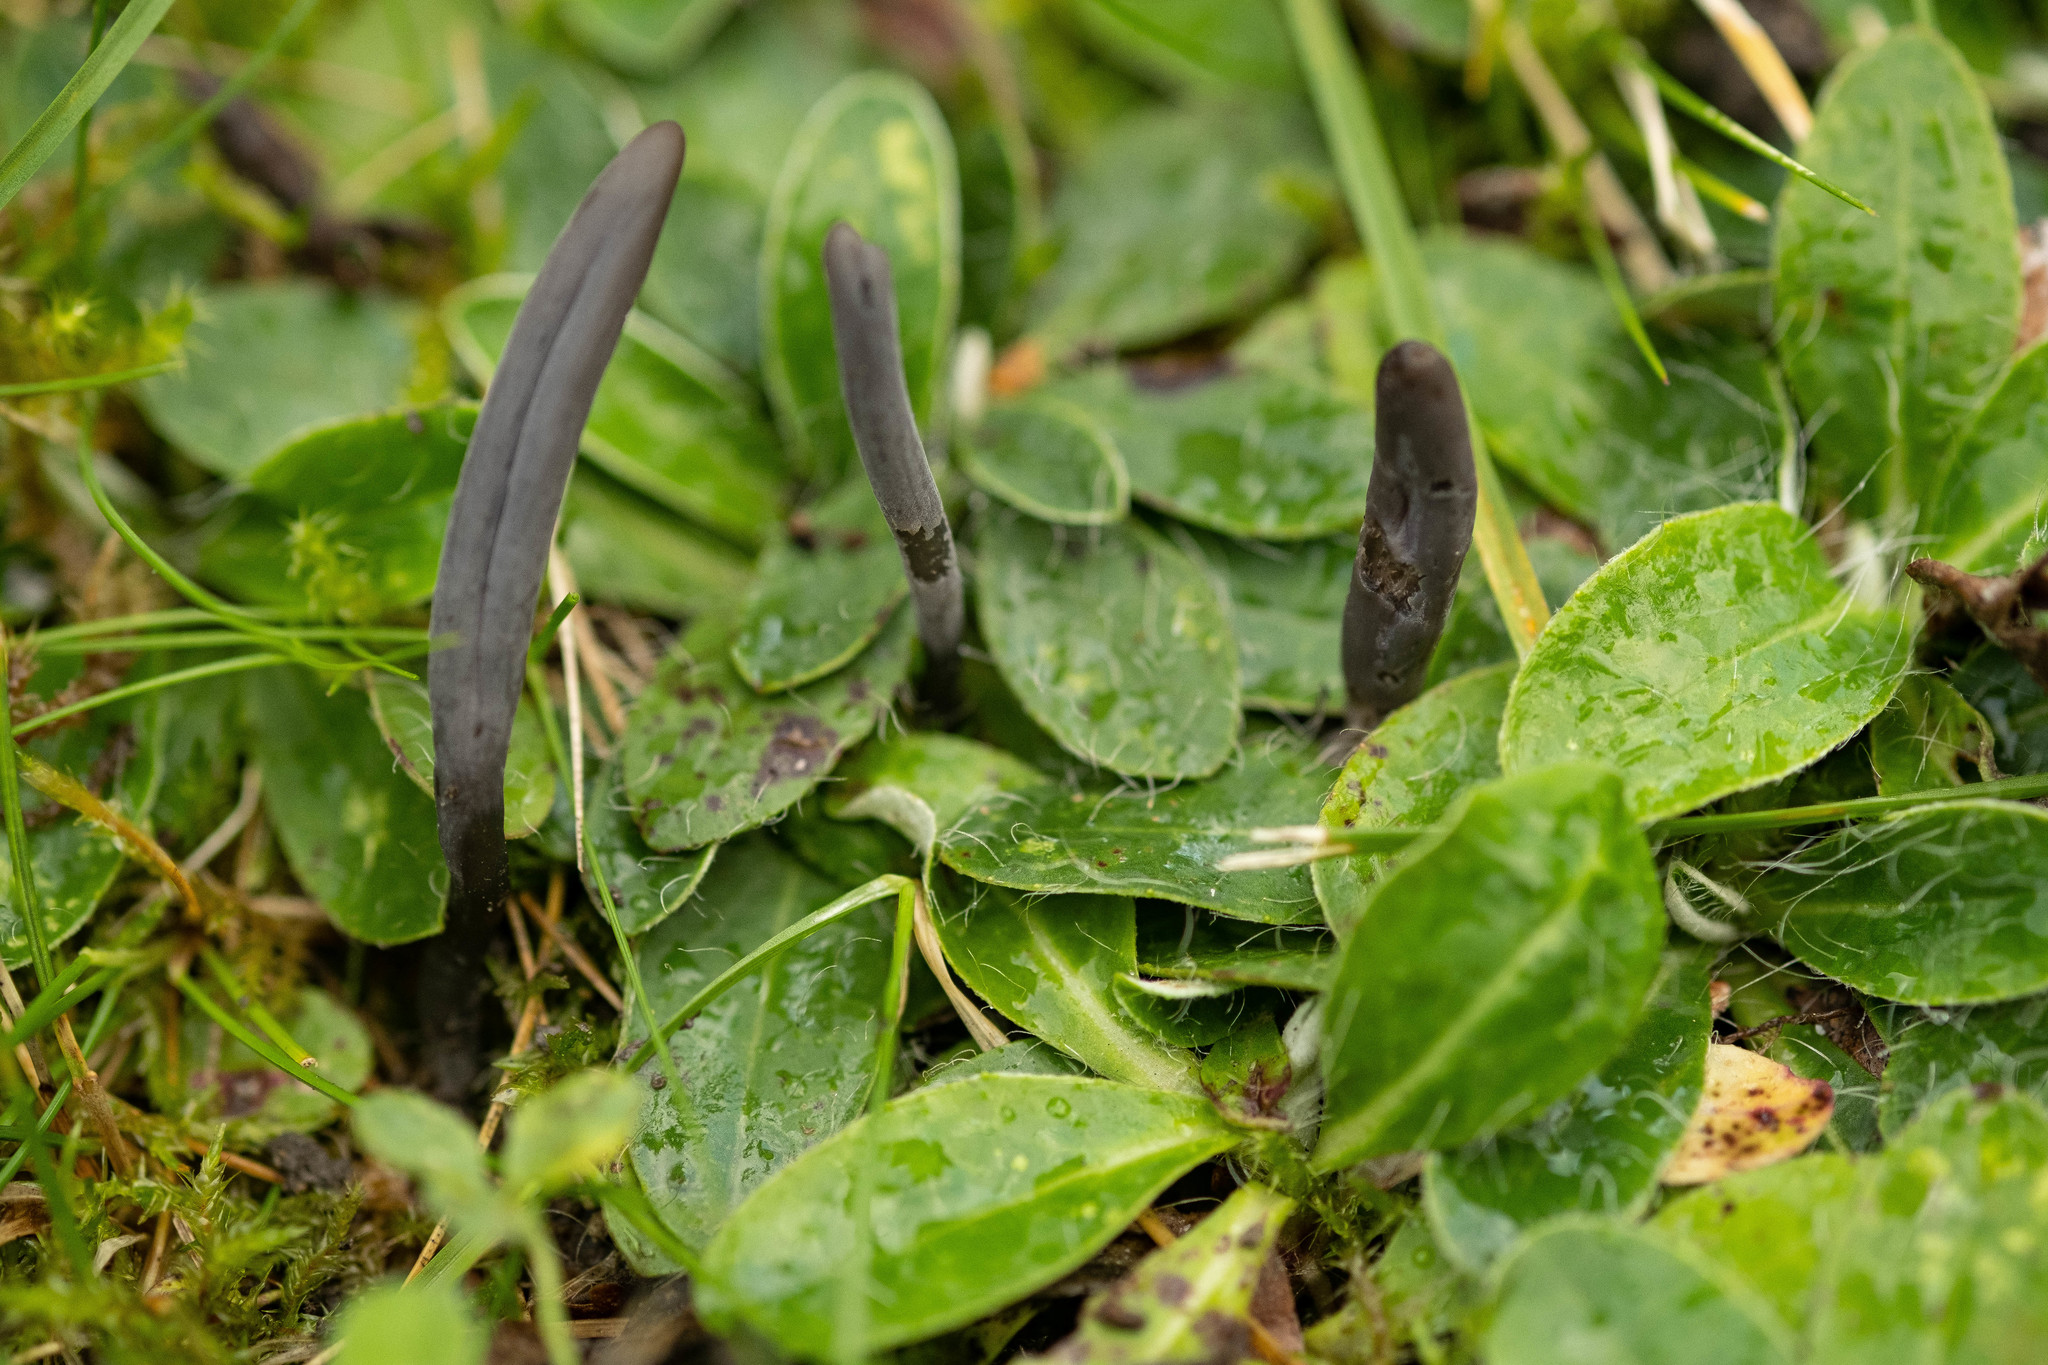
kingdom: Fungi
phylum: Basidiomycota
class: Agaricomycetes
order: Agaricales
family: Clavariaceae
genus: Clavaria
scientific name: Clavaria greletii
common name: Dark club
